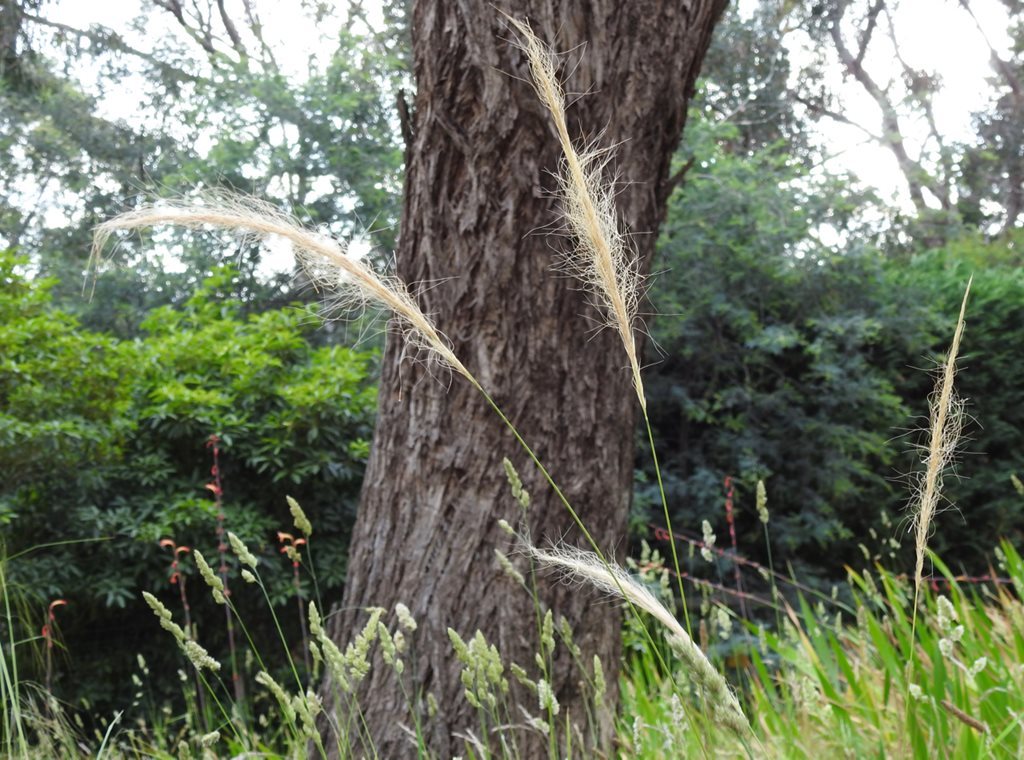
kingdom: Plantae
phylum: Tracheophyta
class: Liliopsida
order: Poales
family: Poaceae
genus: Dichelachne
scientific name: Dichelachne crinita
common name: Clovenfoot plumegrass
